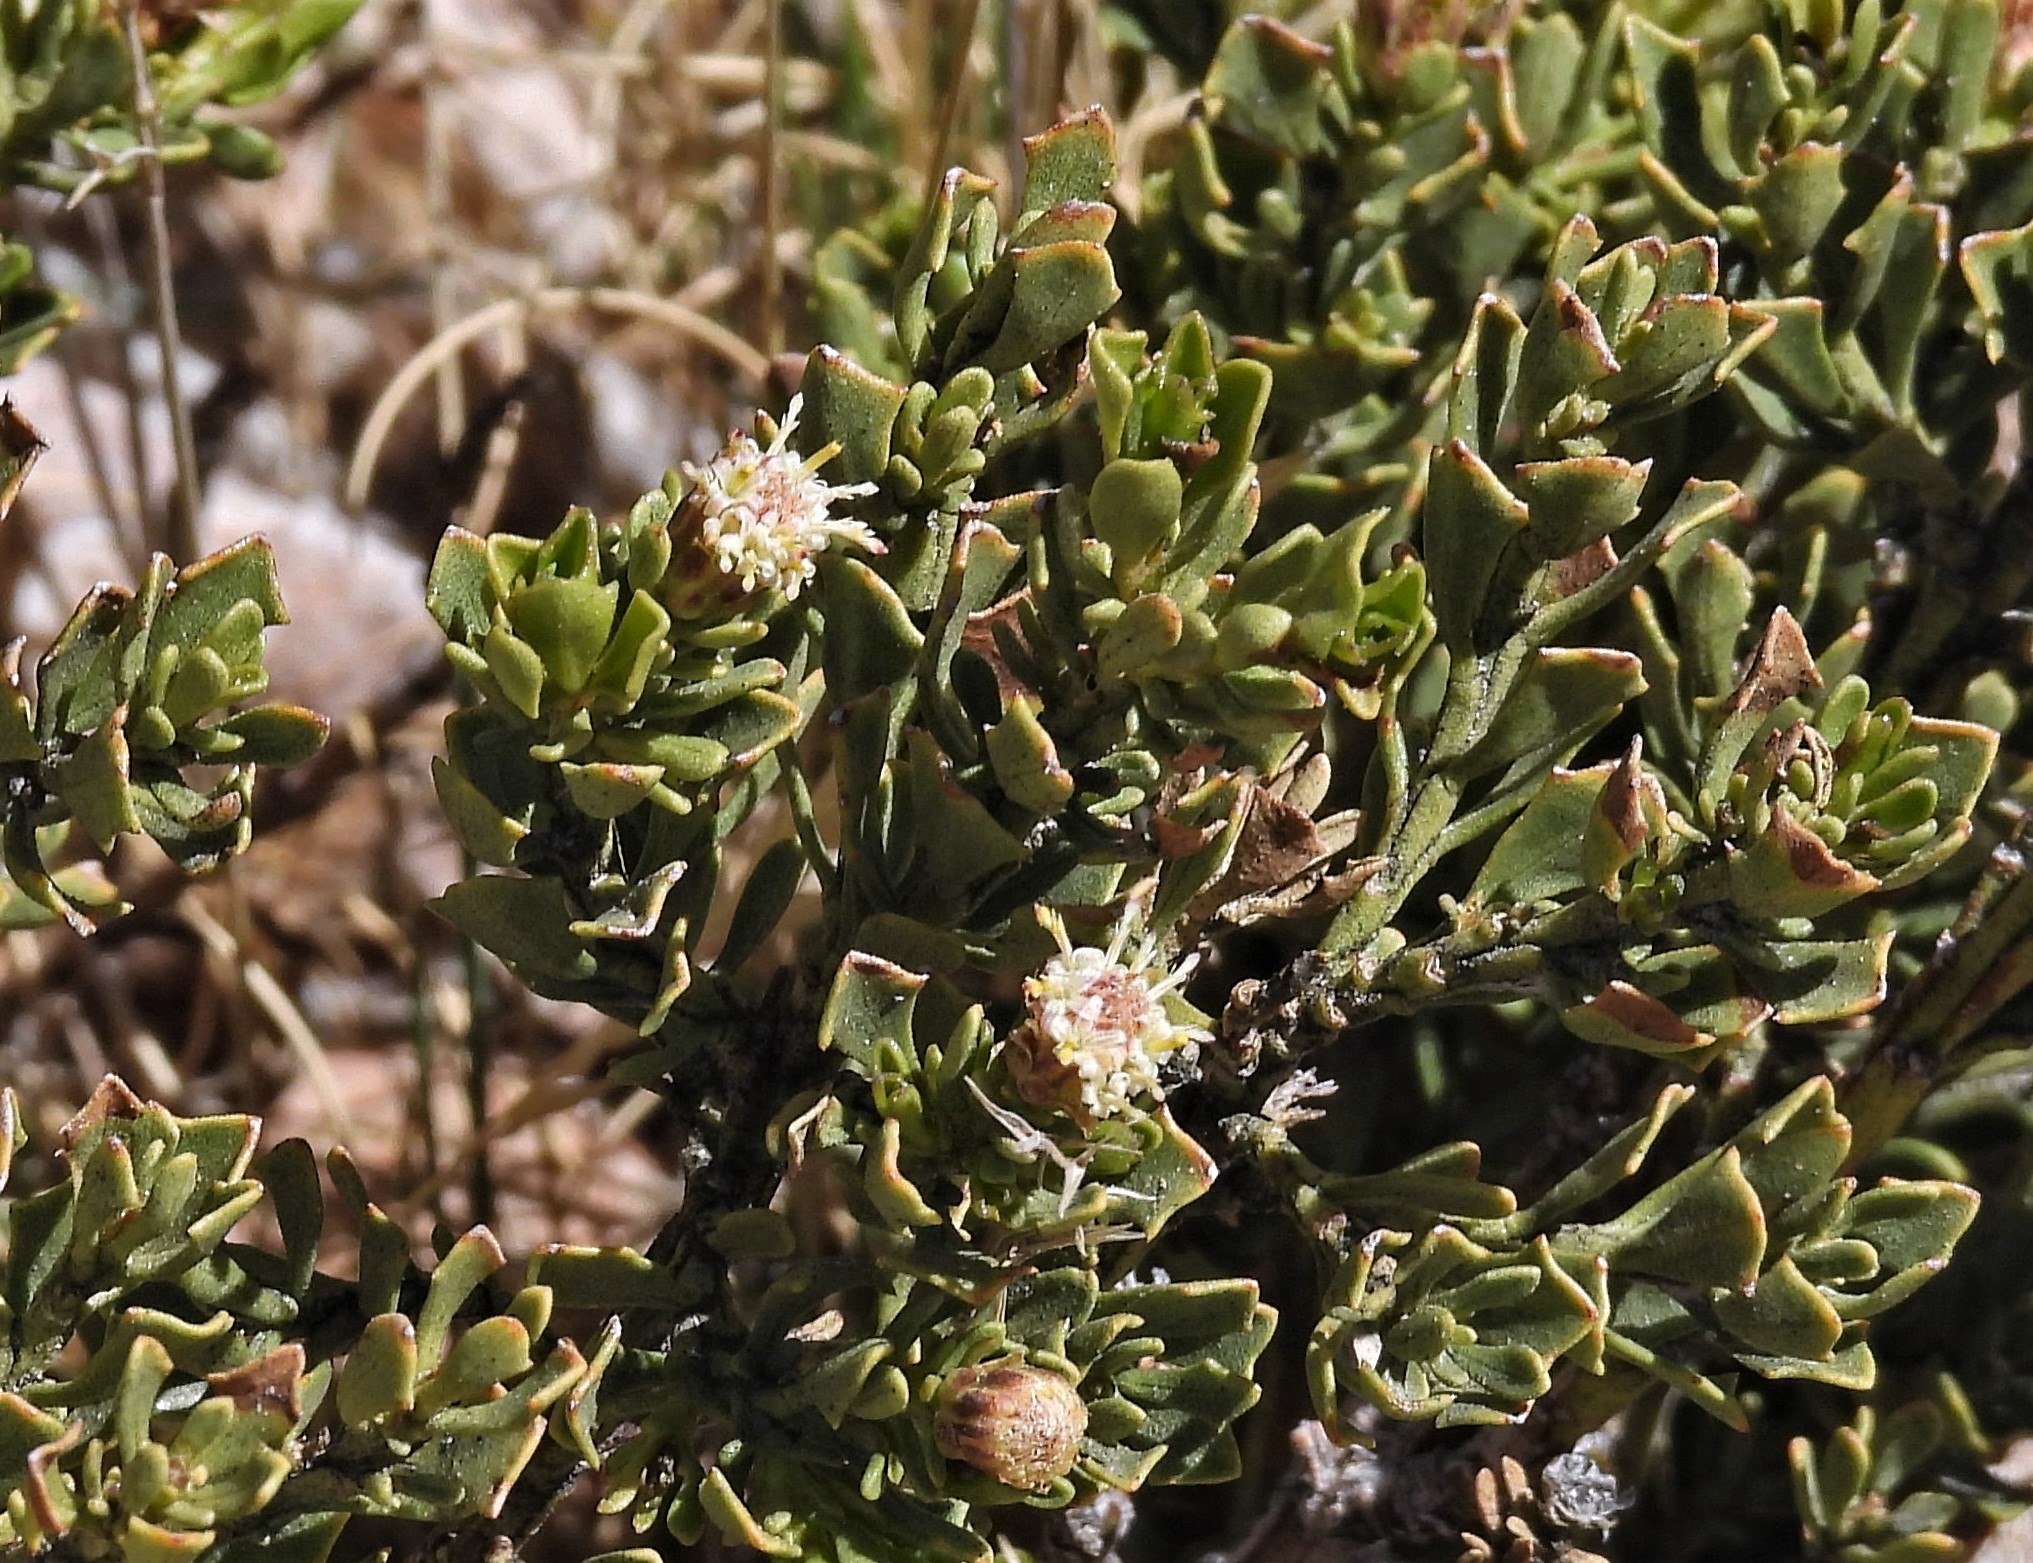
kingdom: Plantae
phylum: Tracheophyta
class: Magnoliopsida
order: Asterales
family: Asteraceae
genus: Baccharis
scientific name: Baccharis tola
